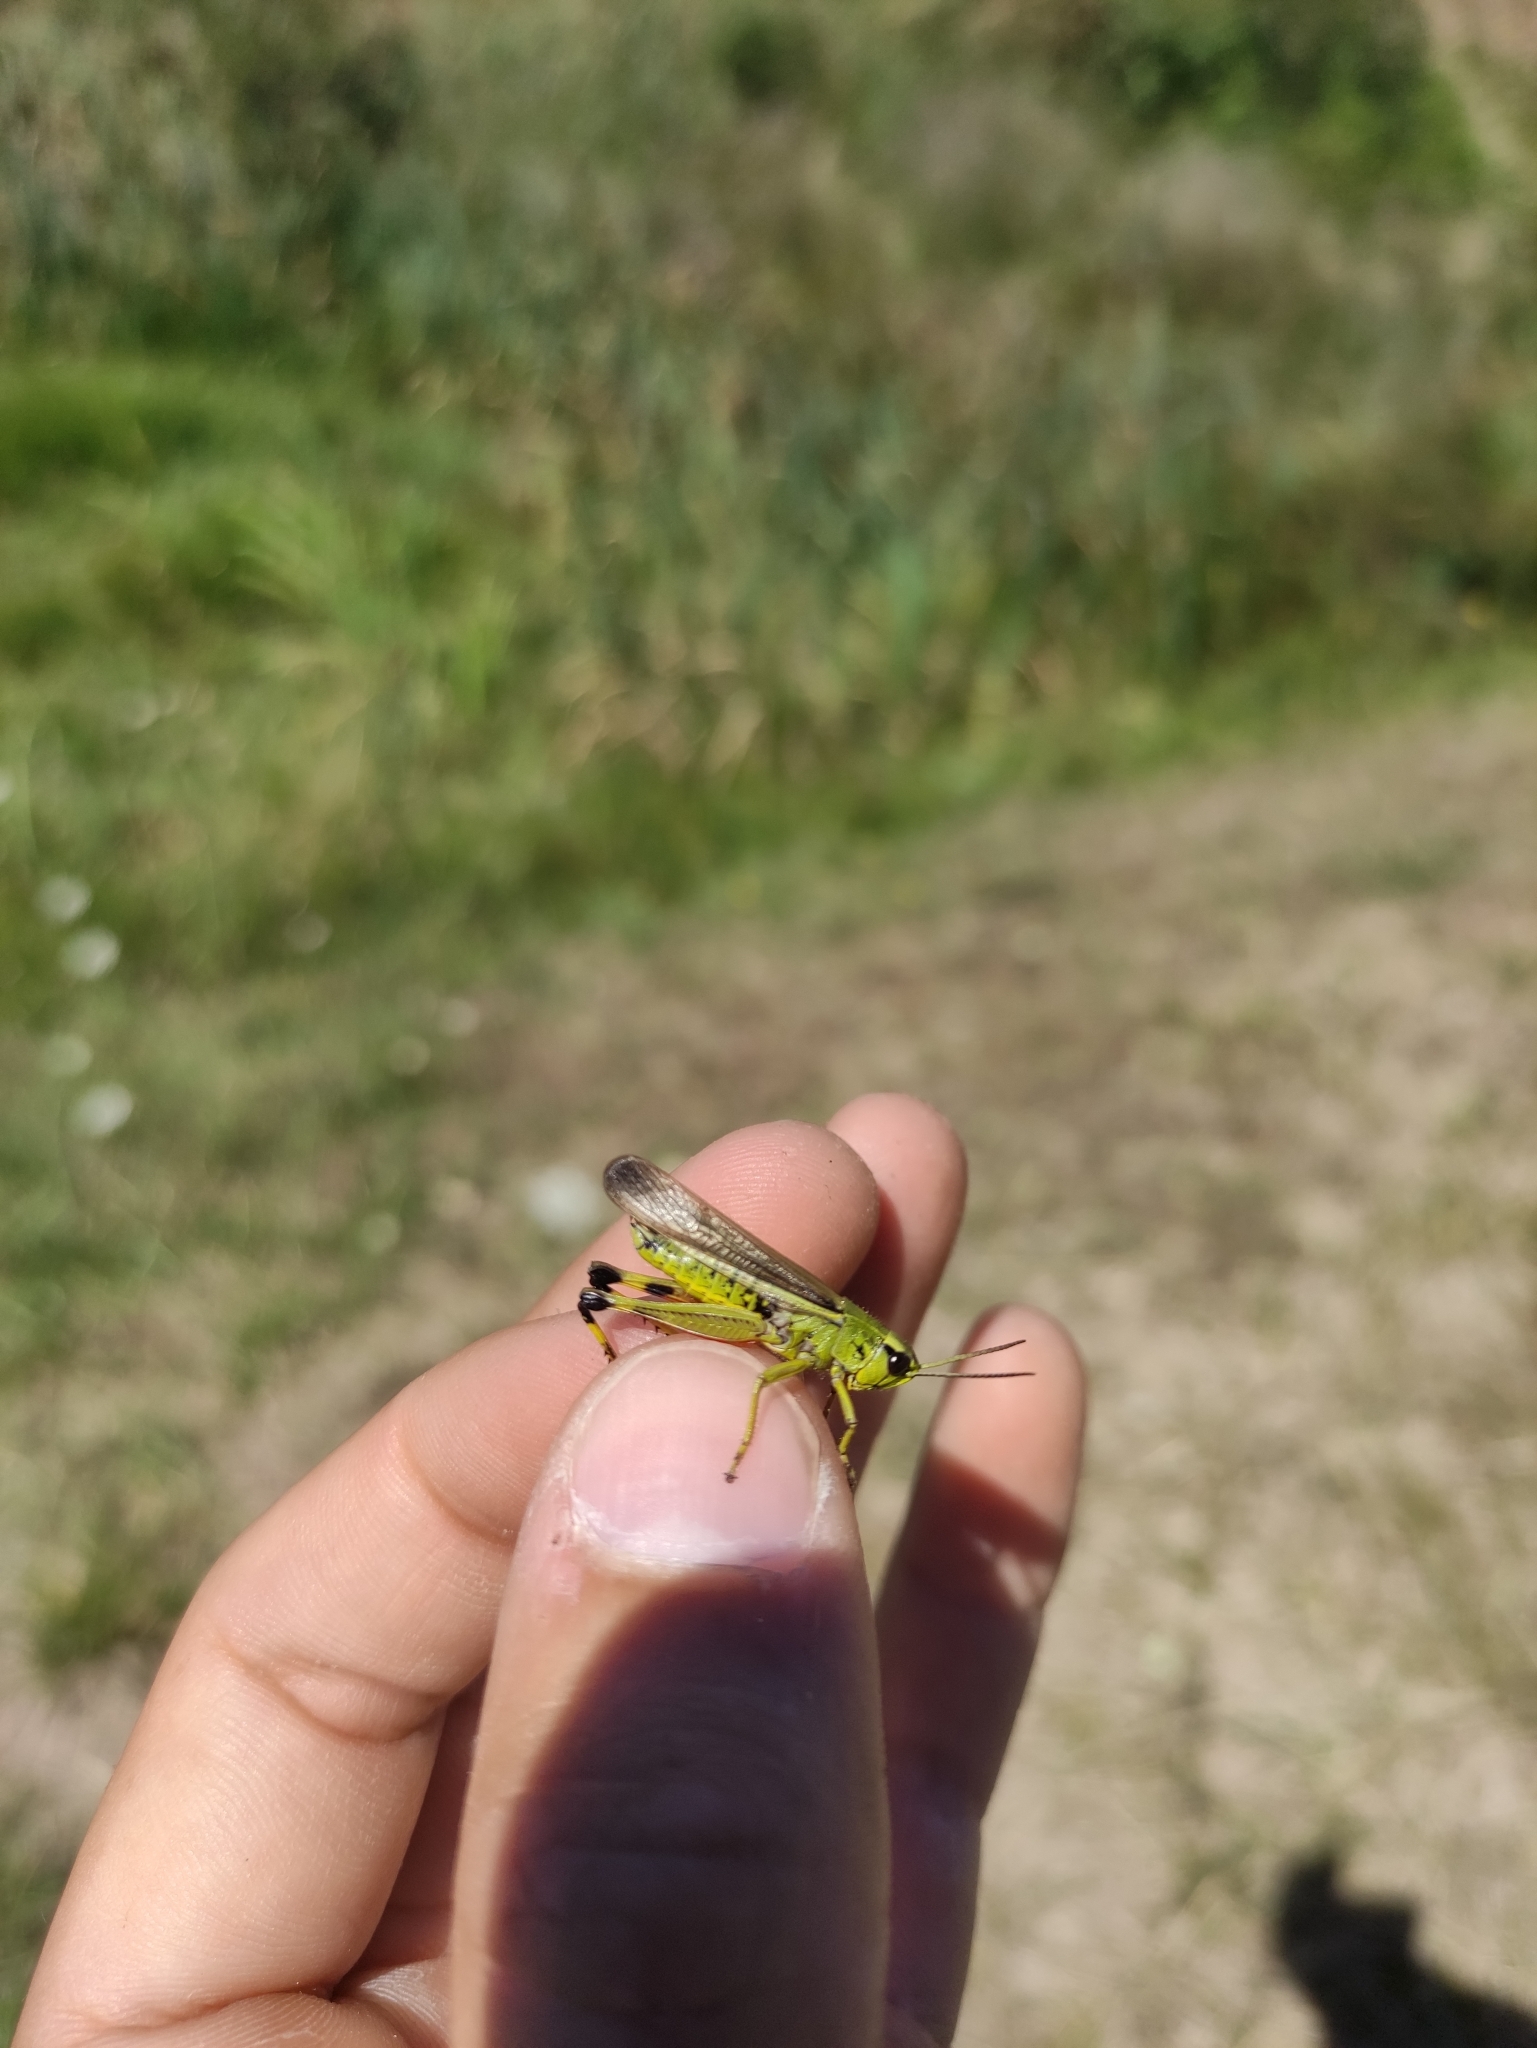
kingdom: Animalia
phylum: Arthropoda
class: Insecta
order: Orthoptera
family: Acrididae
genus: Stethophyma
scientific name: Stethophyma grossum
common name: Large marsh grasshopper
